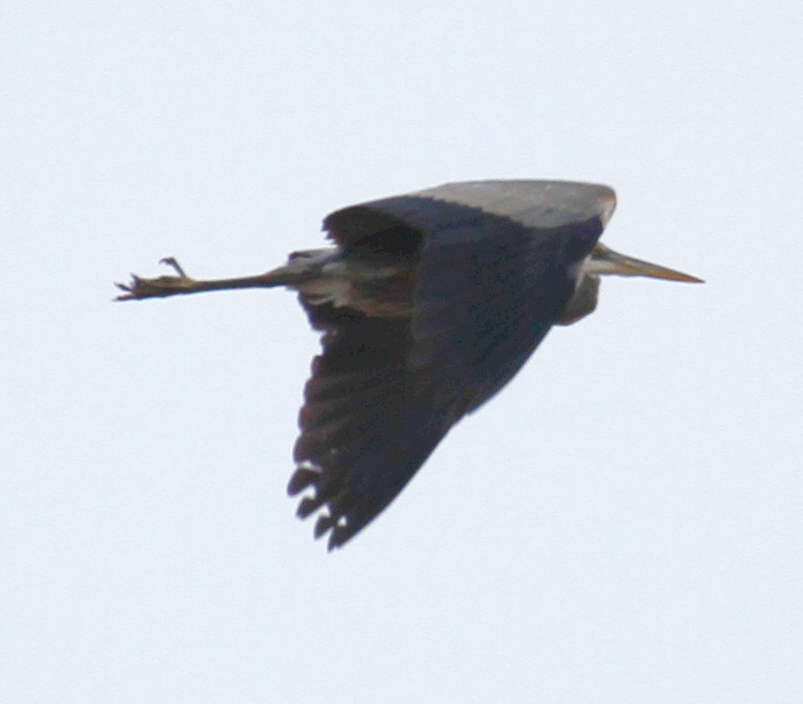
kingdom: Animalia
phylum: Chordata
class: Aves
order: Pelecaniformes
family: Ardeidae
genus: Ardea
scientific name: Ardea herodias
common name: Great blue heron
